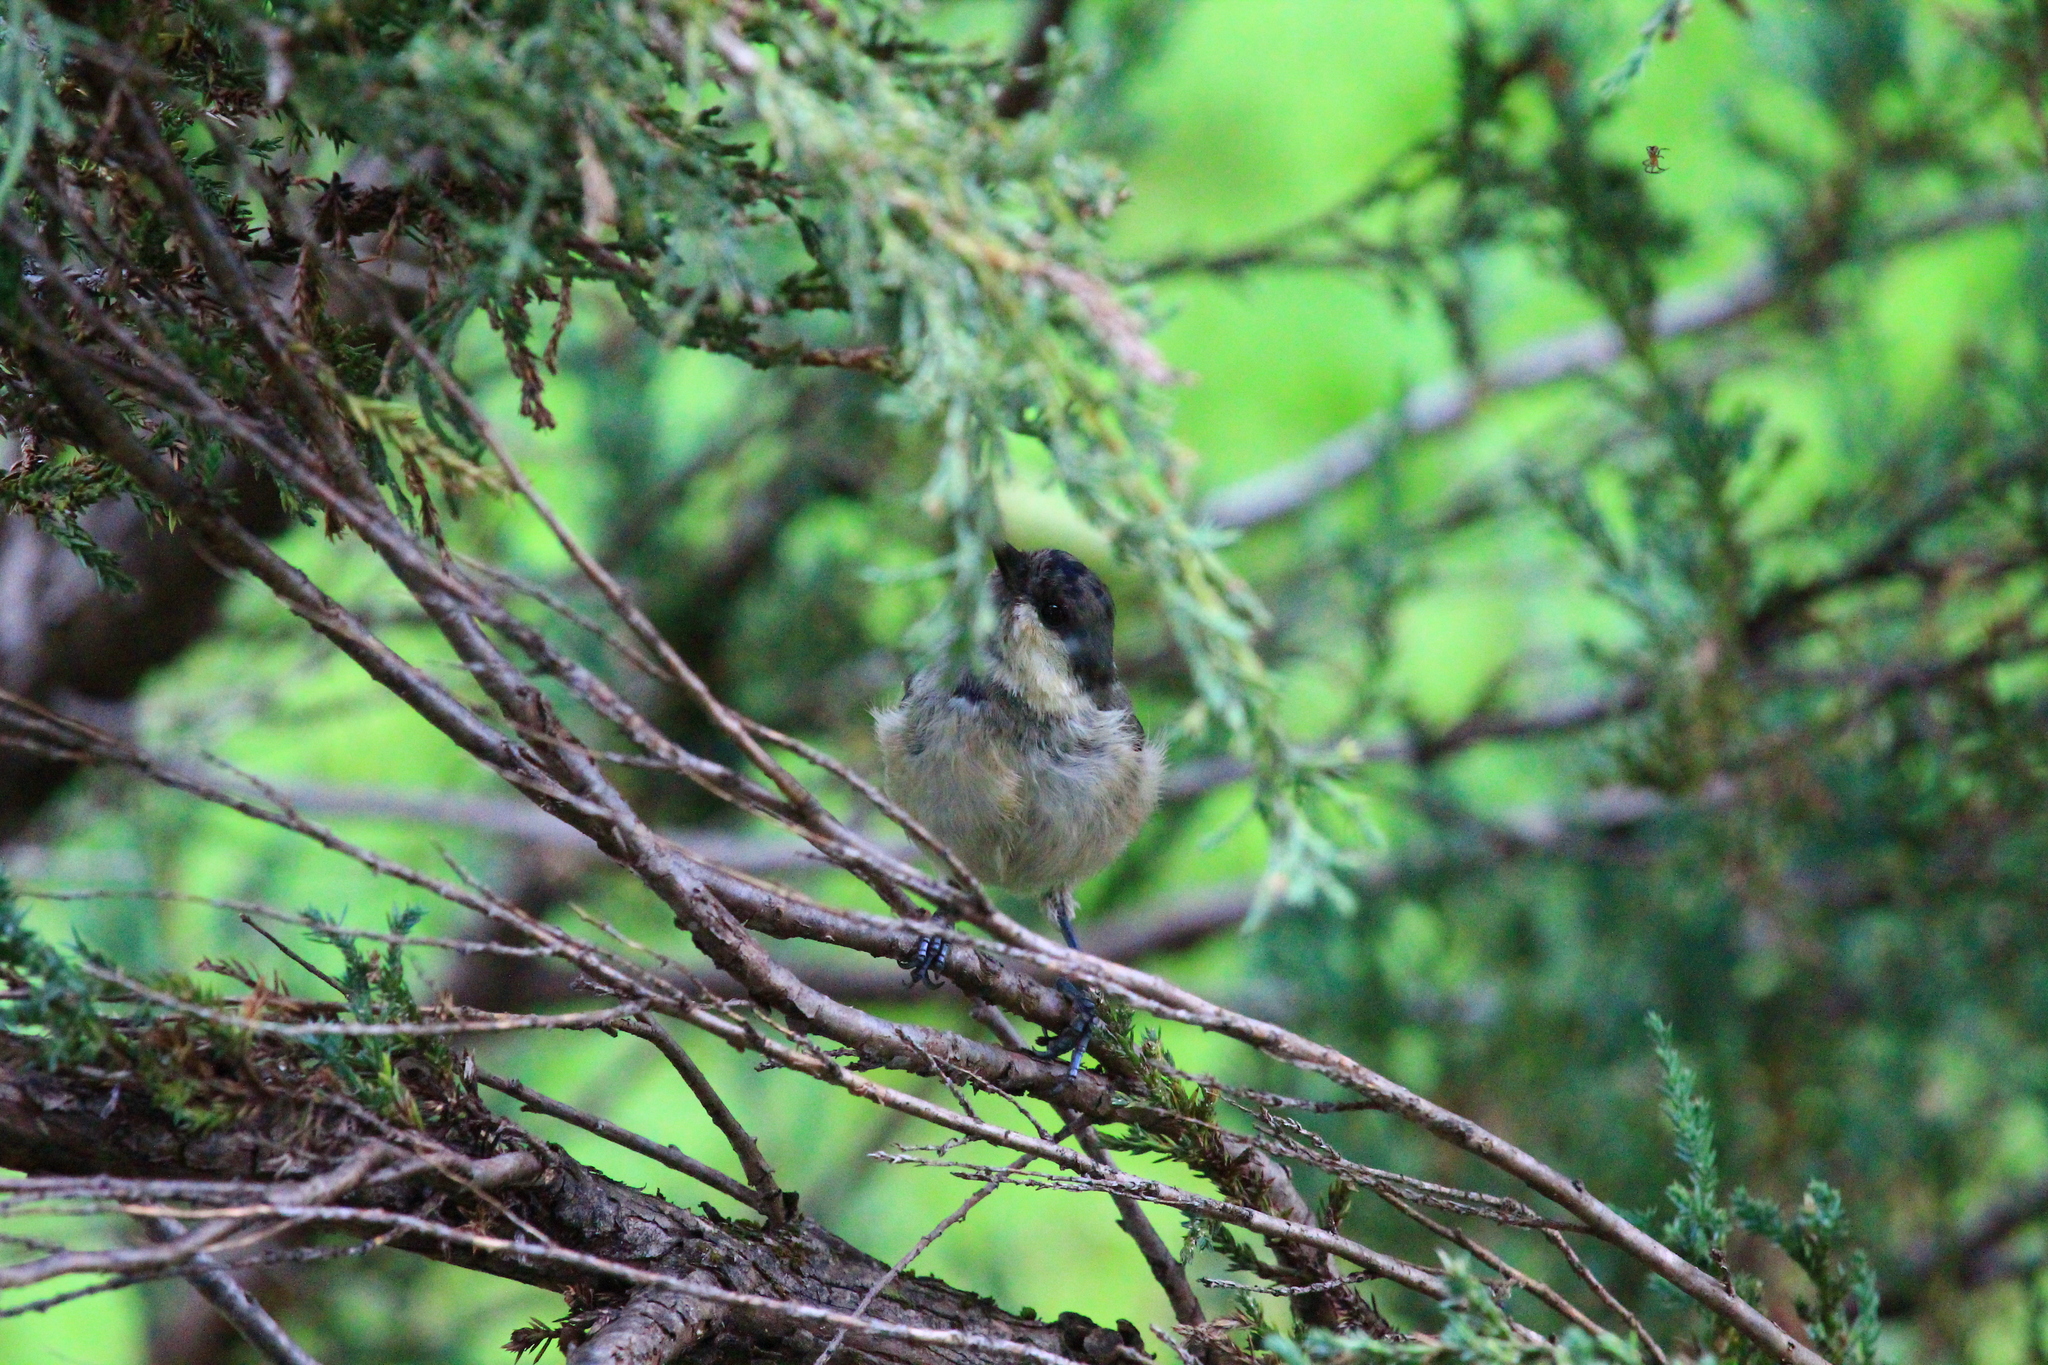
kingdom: Animalia
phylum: Chordata
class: Aves
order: Passeriformes
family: Paridae
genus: Periparus
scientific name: Periparus ater
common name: Coal tit
